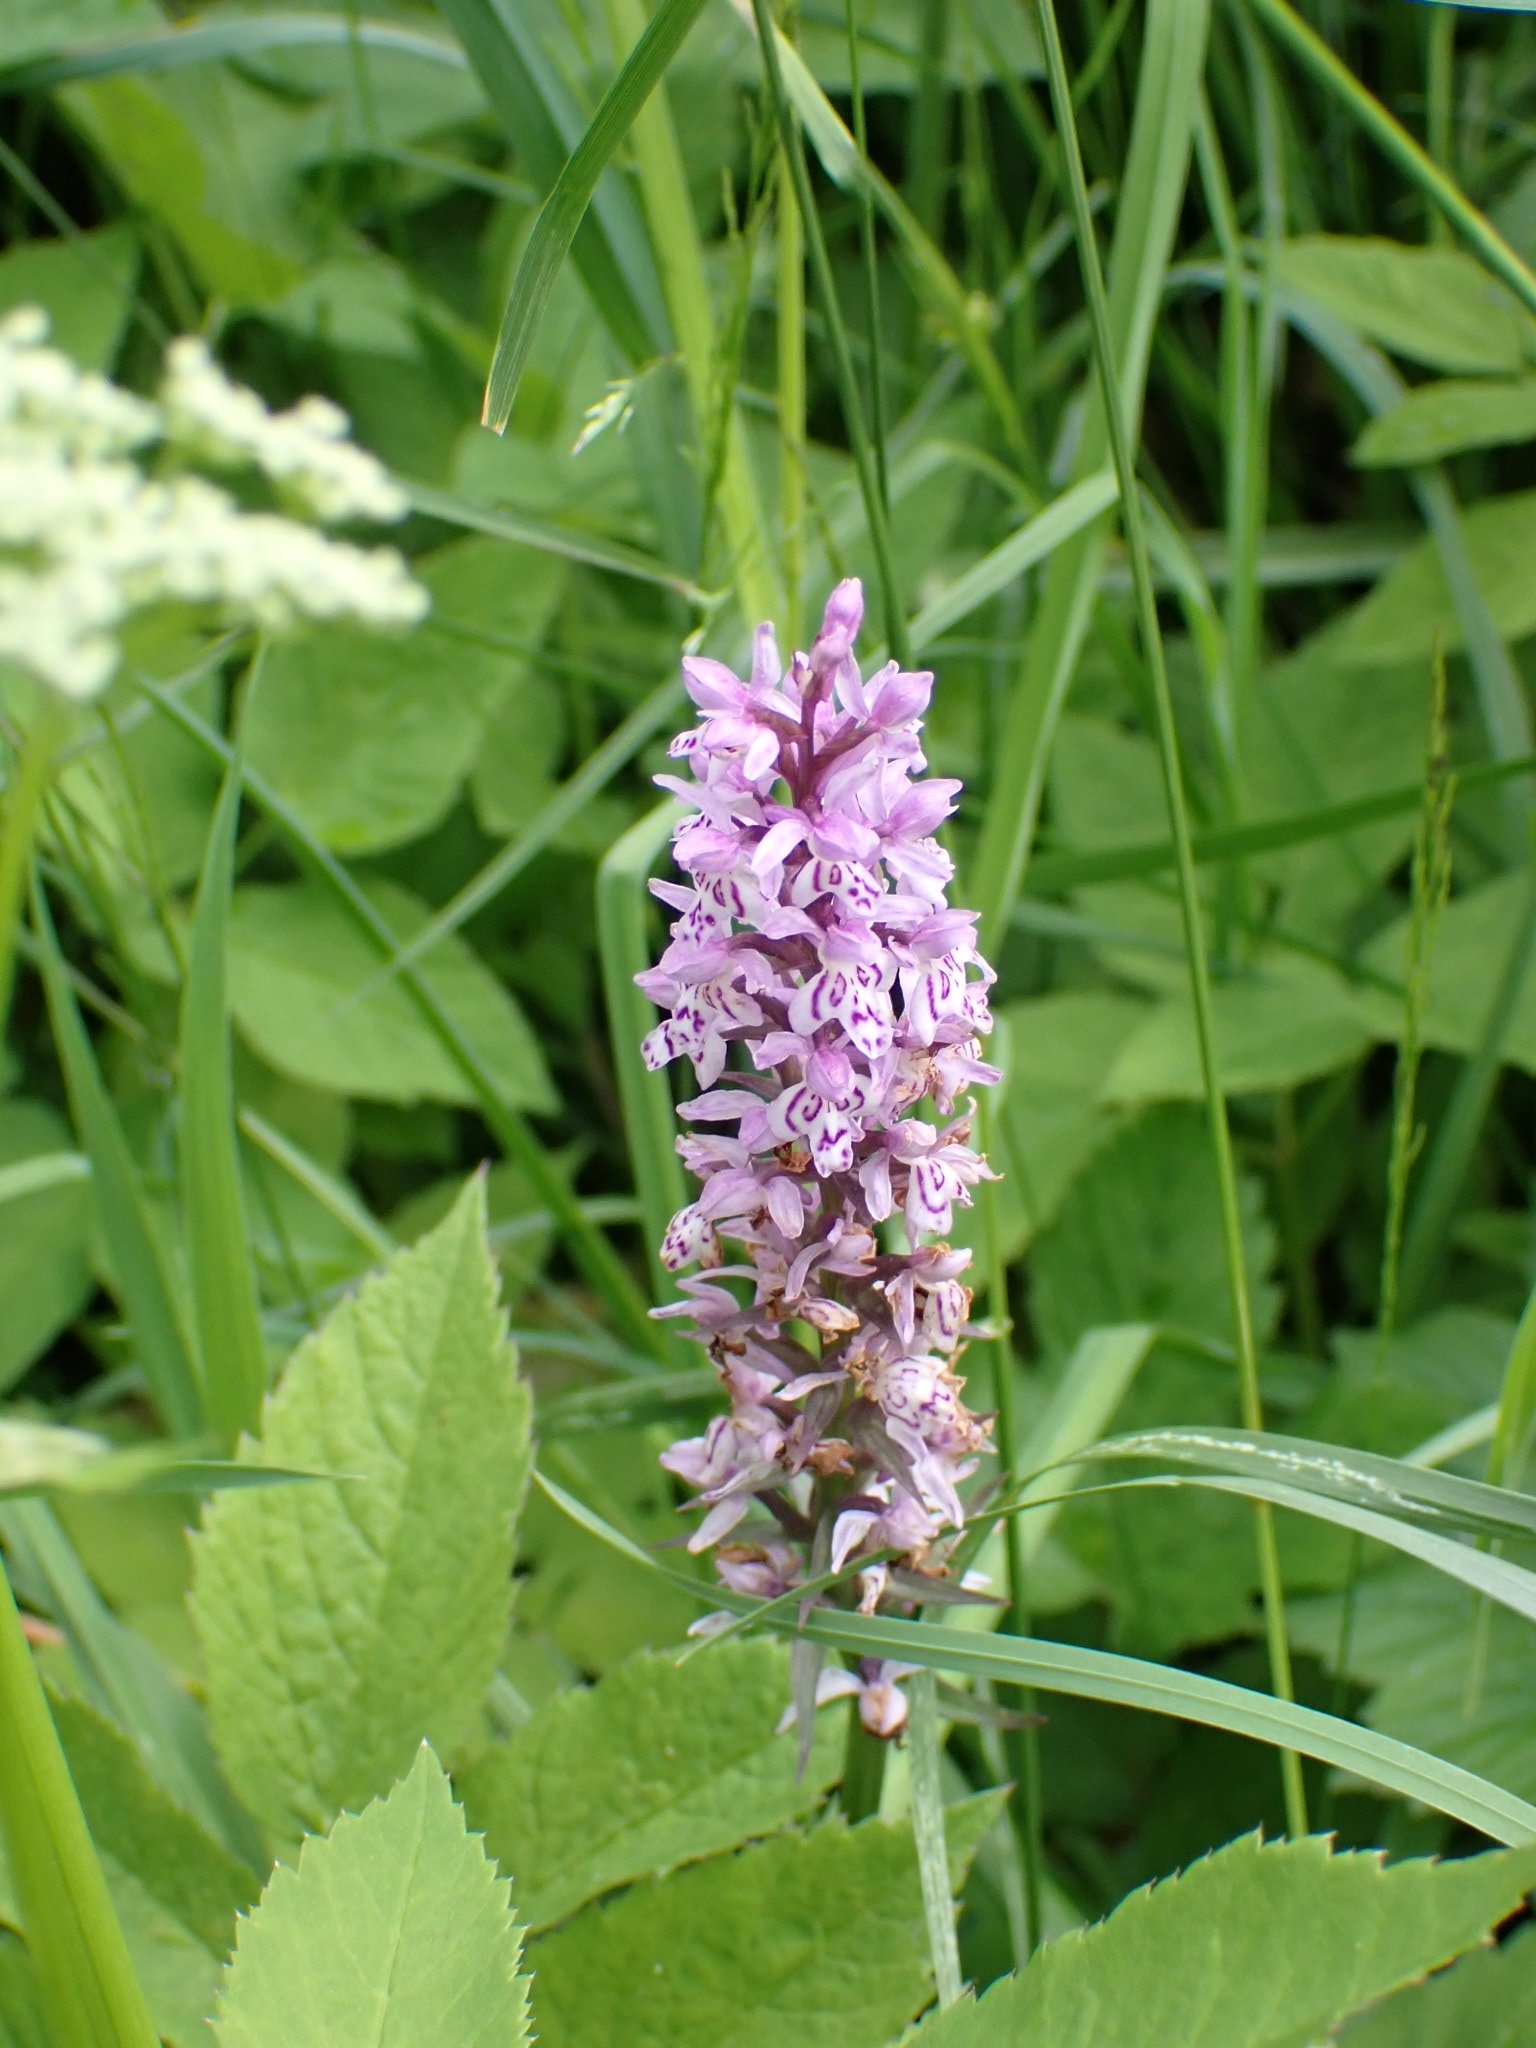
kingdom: Plantae
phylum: Tracheophyta
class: Liliopsida
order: Asparagales
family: Orchidaceae
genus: Dactylorhiza
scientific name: Dactylorhiza maculata
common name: Heath spotted-orchid
